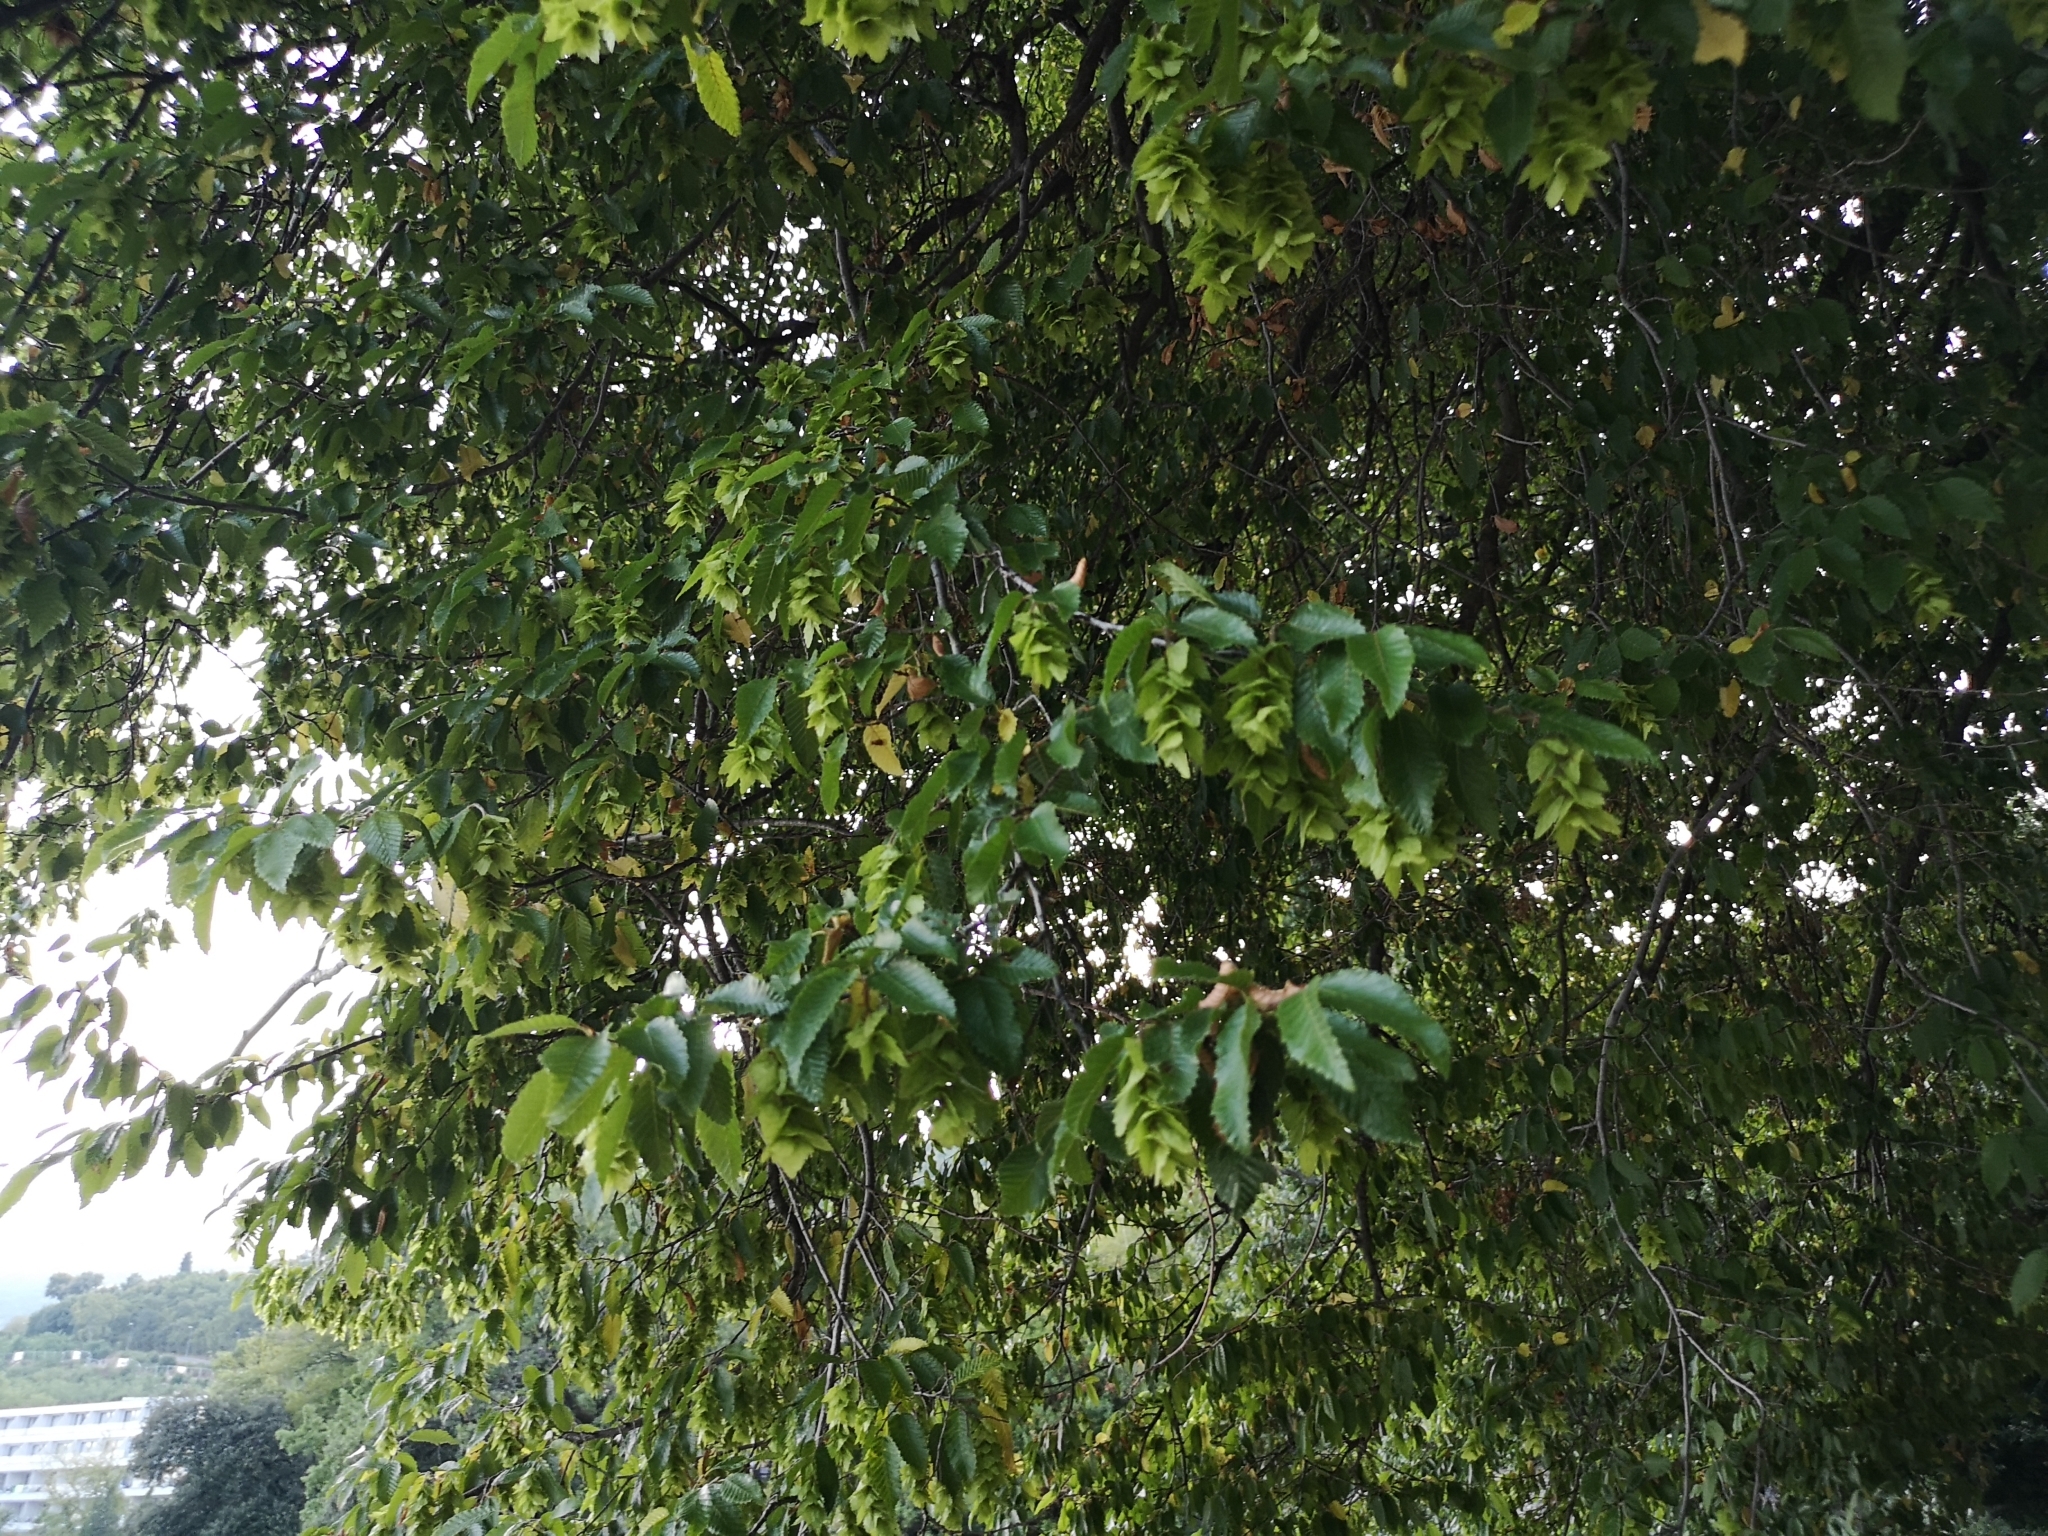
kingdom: Plantae
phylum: Tracheophyta
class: Magnoliopsida
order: Fagales
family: Betulaceae
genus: Ostrya
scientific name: Ostrya carpinifolia
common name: European hop-hornbeam
